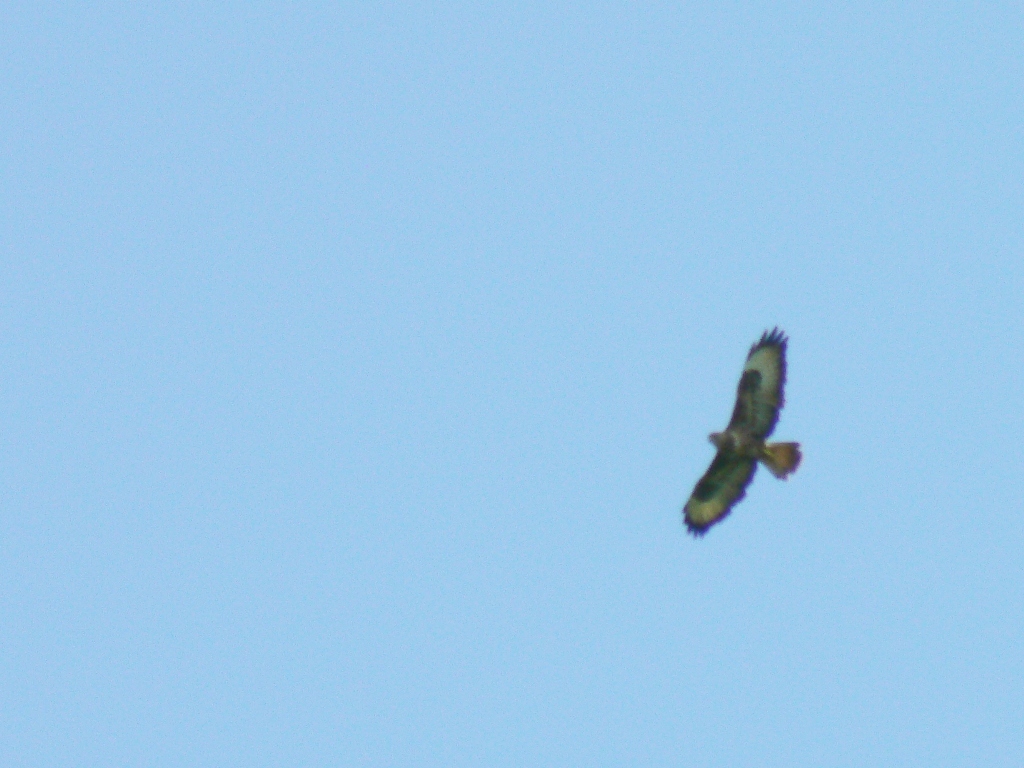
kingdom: Animalia
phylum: Chordata
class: Aves
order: Accipitriformes
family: Accipitridae
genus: Buteo
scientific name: Buteo buteo
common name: Common buzzard
